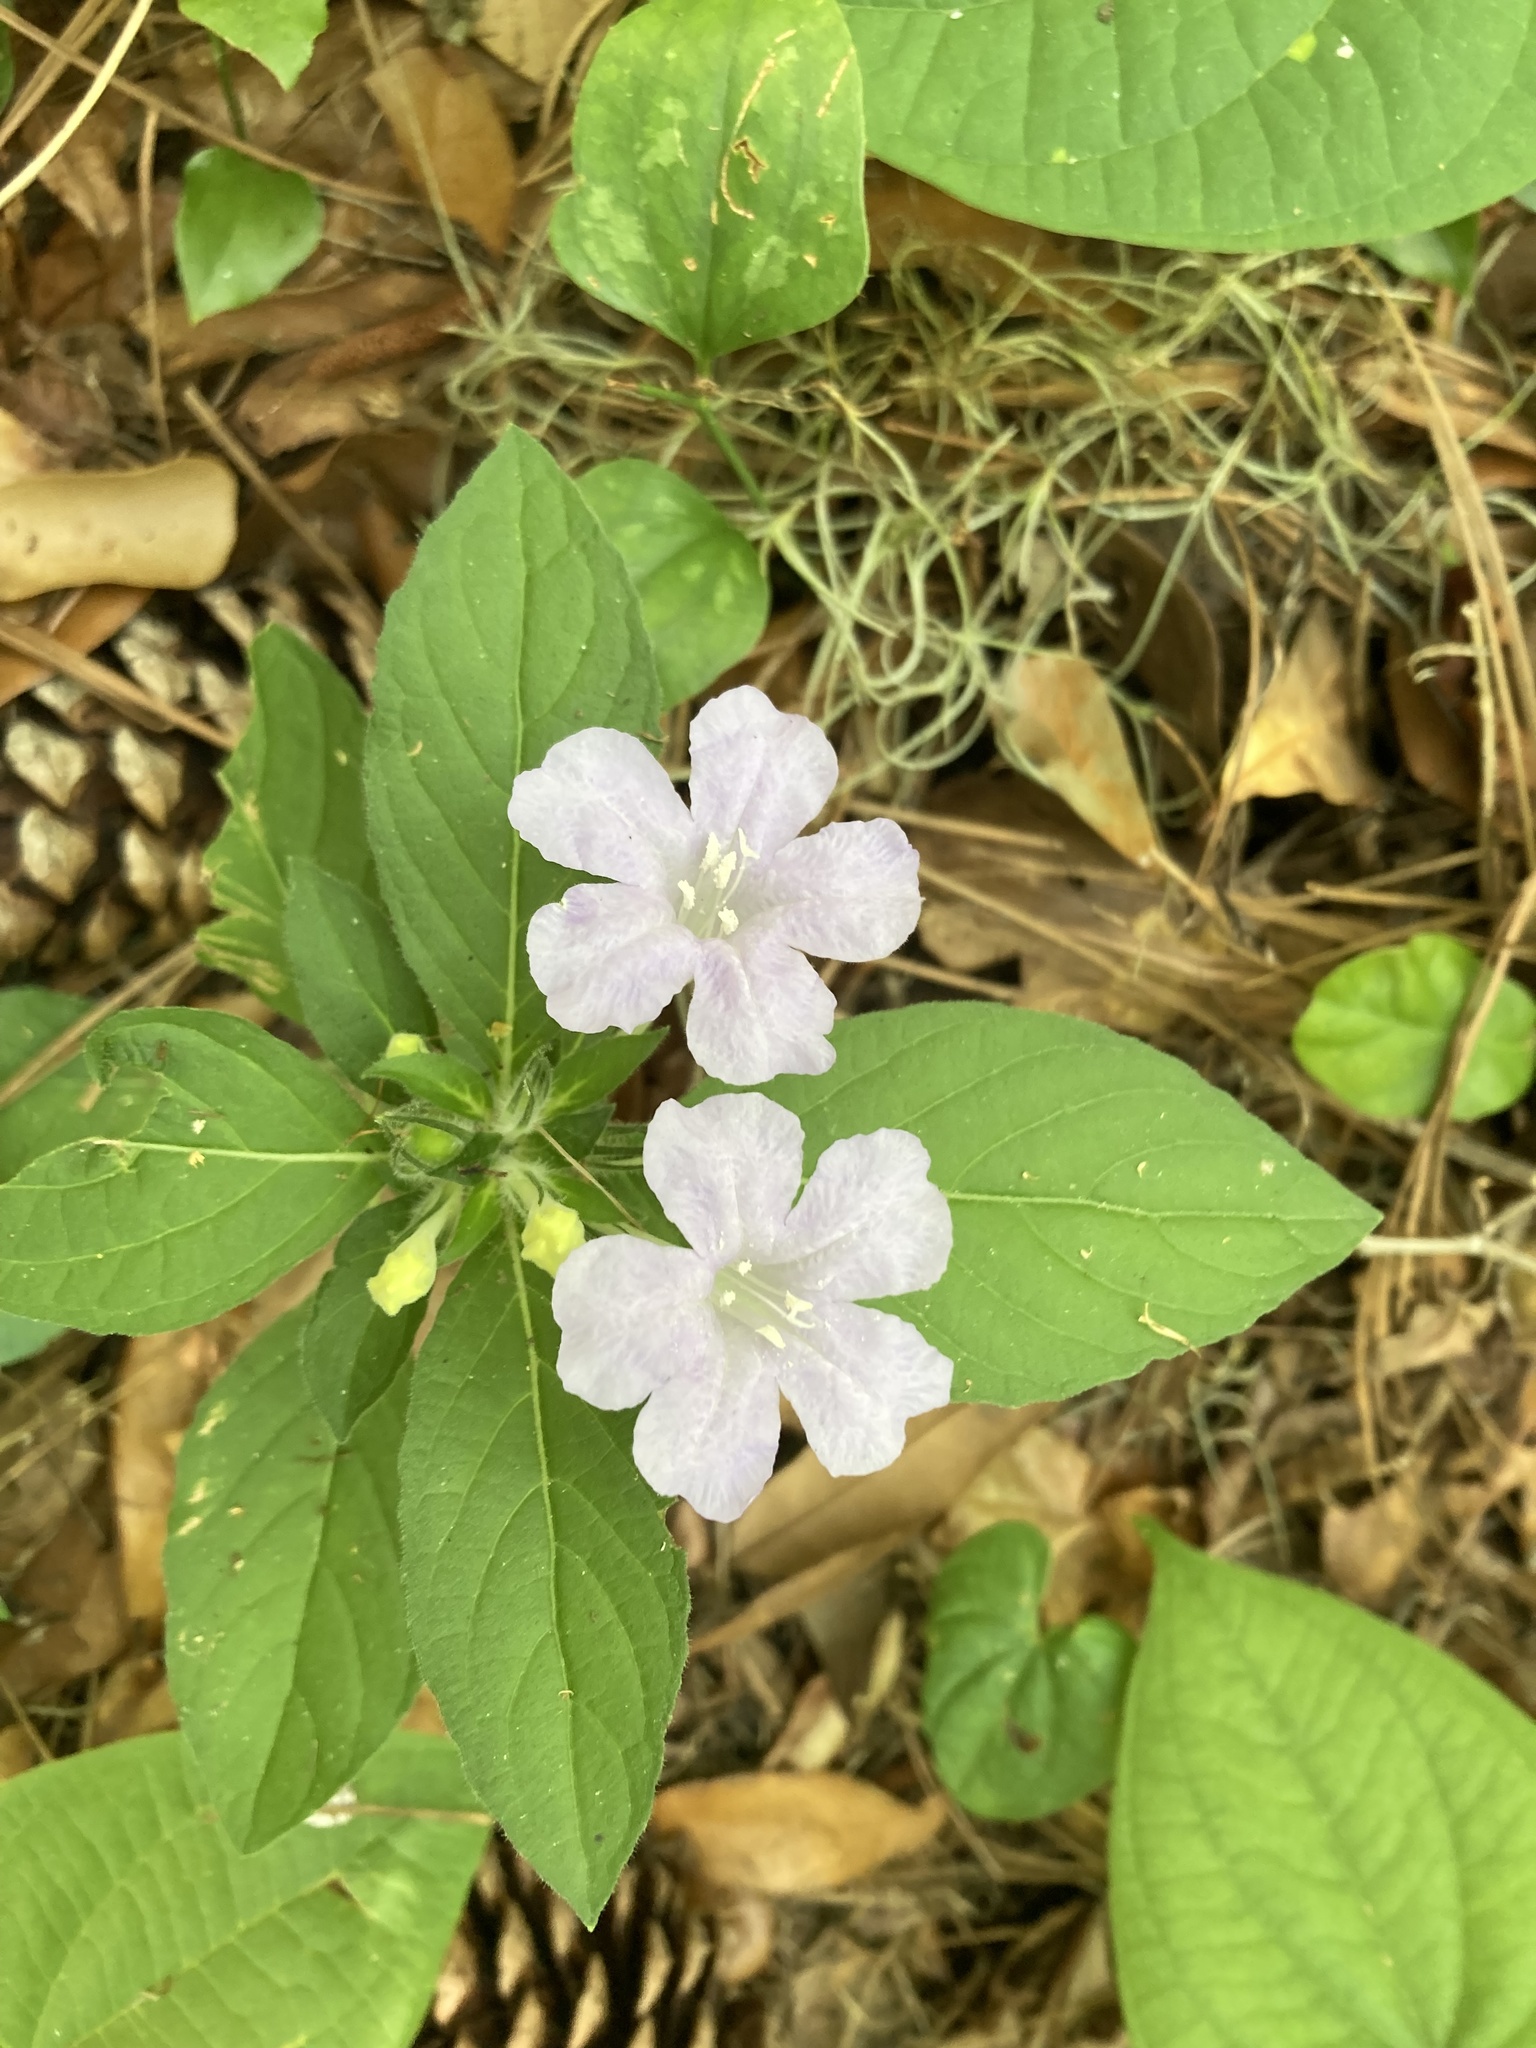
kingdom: Plantae
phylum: Tracheophyta
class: Magnoliopsida
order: Lamiales
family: Acanthaceae
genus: Ruellia
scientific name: Ruellia caroliniensis
